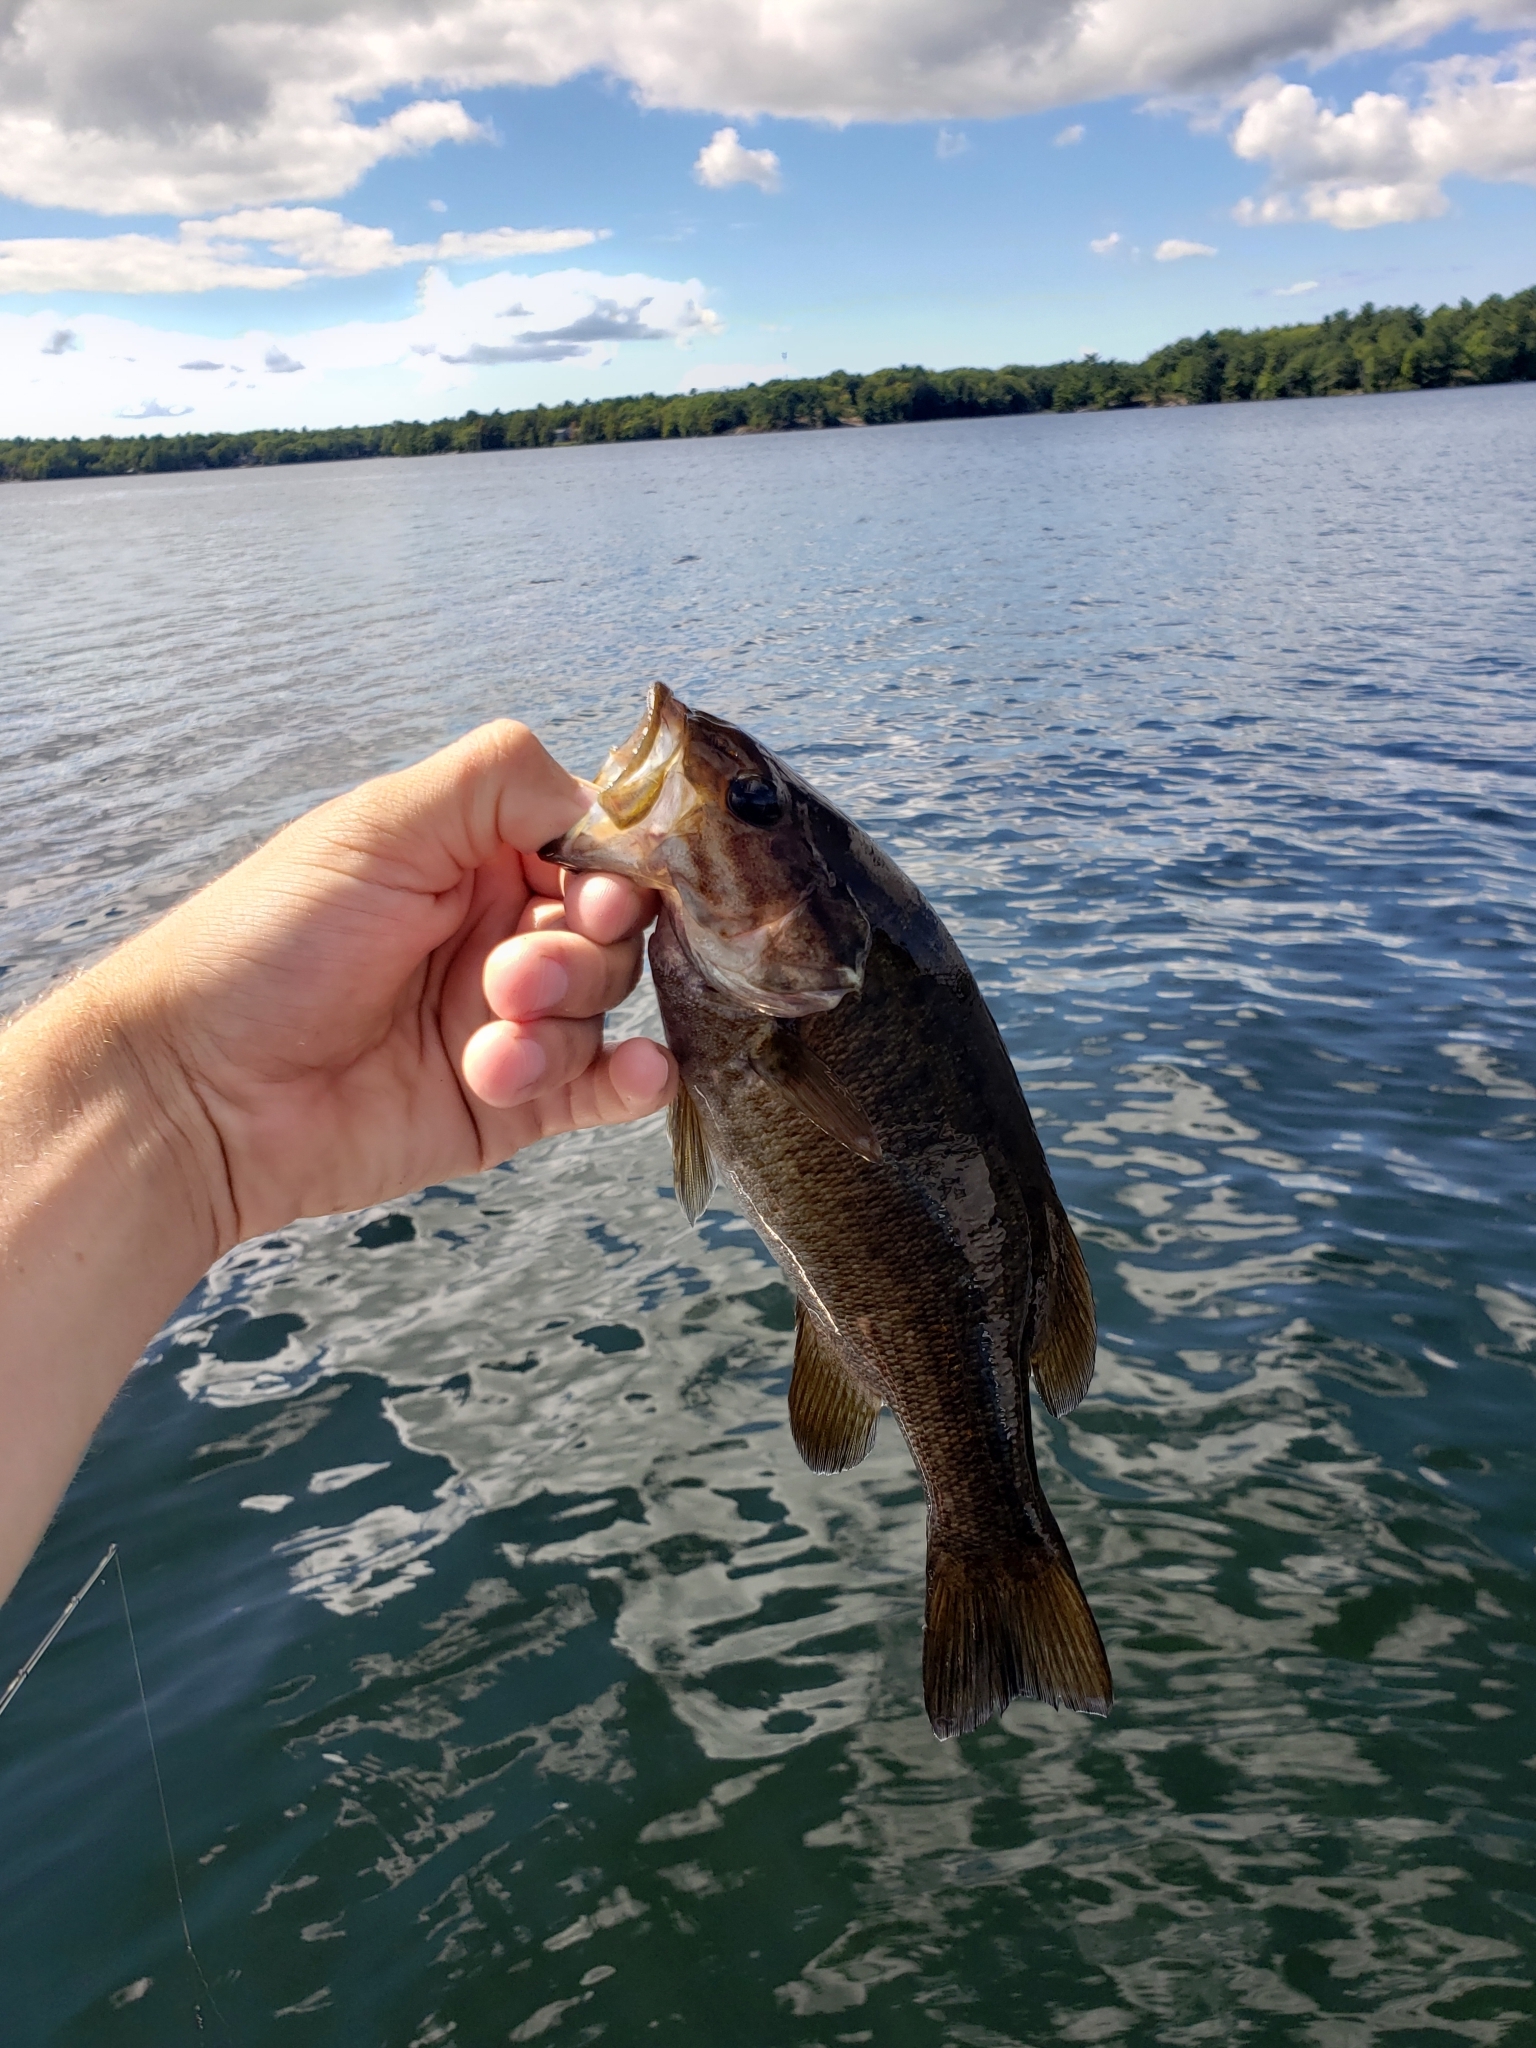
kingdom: Animalia
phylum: Chordata
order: Perciformes
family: Centrarchidae
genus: Micropterus
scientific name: Micropterus dolomieu
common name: Smallmouth bass
